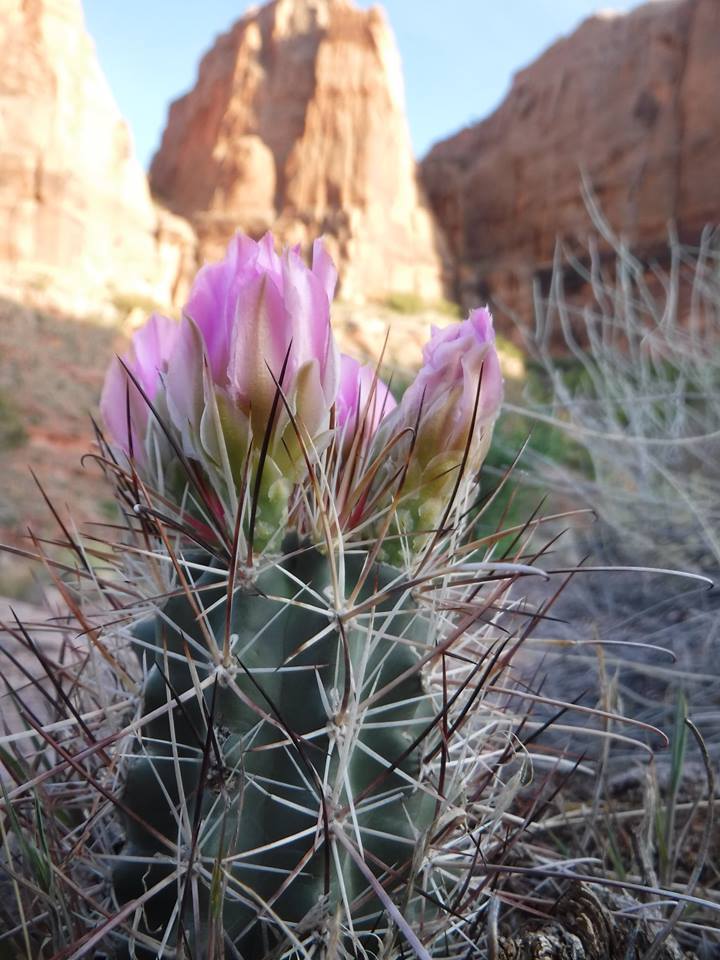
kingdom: Plantae
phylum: Tracheophyta
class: Magnoliopsida
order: Caryophyllales
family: Cactaceae
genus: Sclerocactus
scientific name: Sclerocactus parviflorus
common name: Small-flower fishhook cactus
